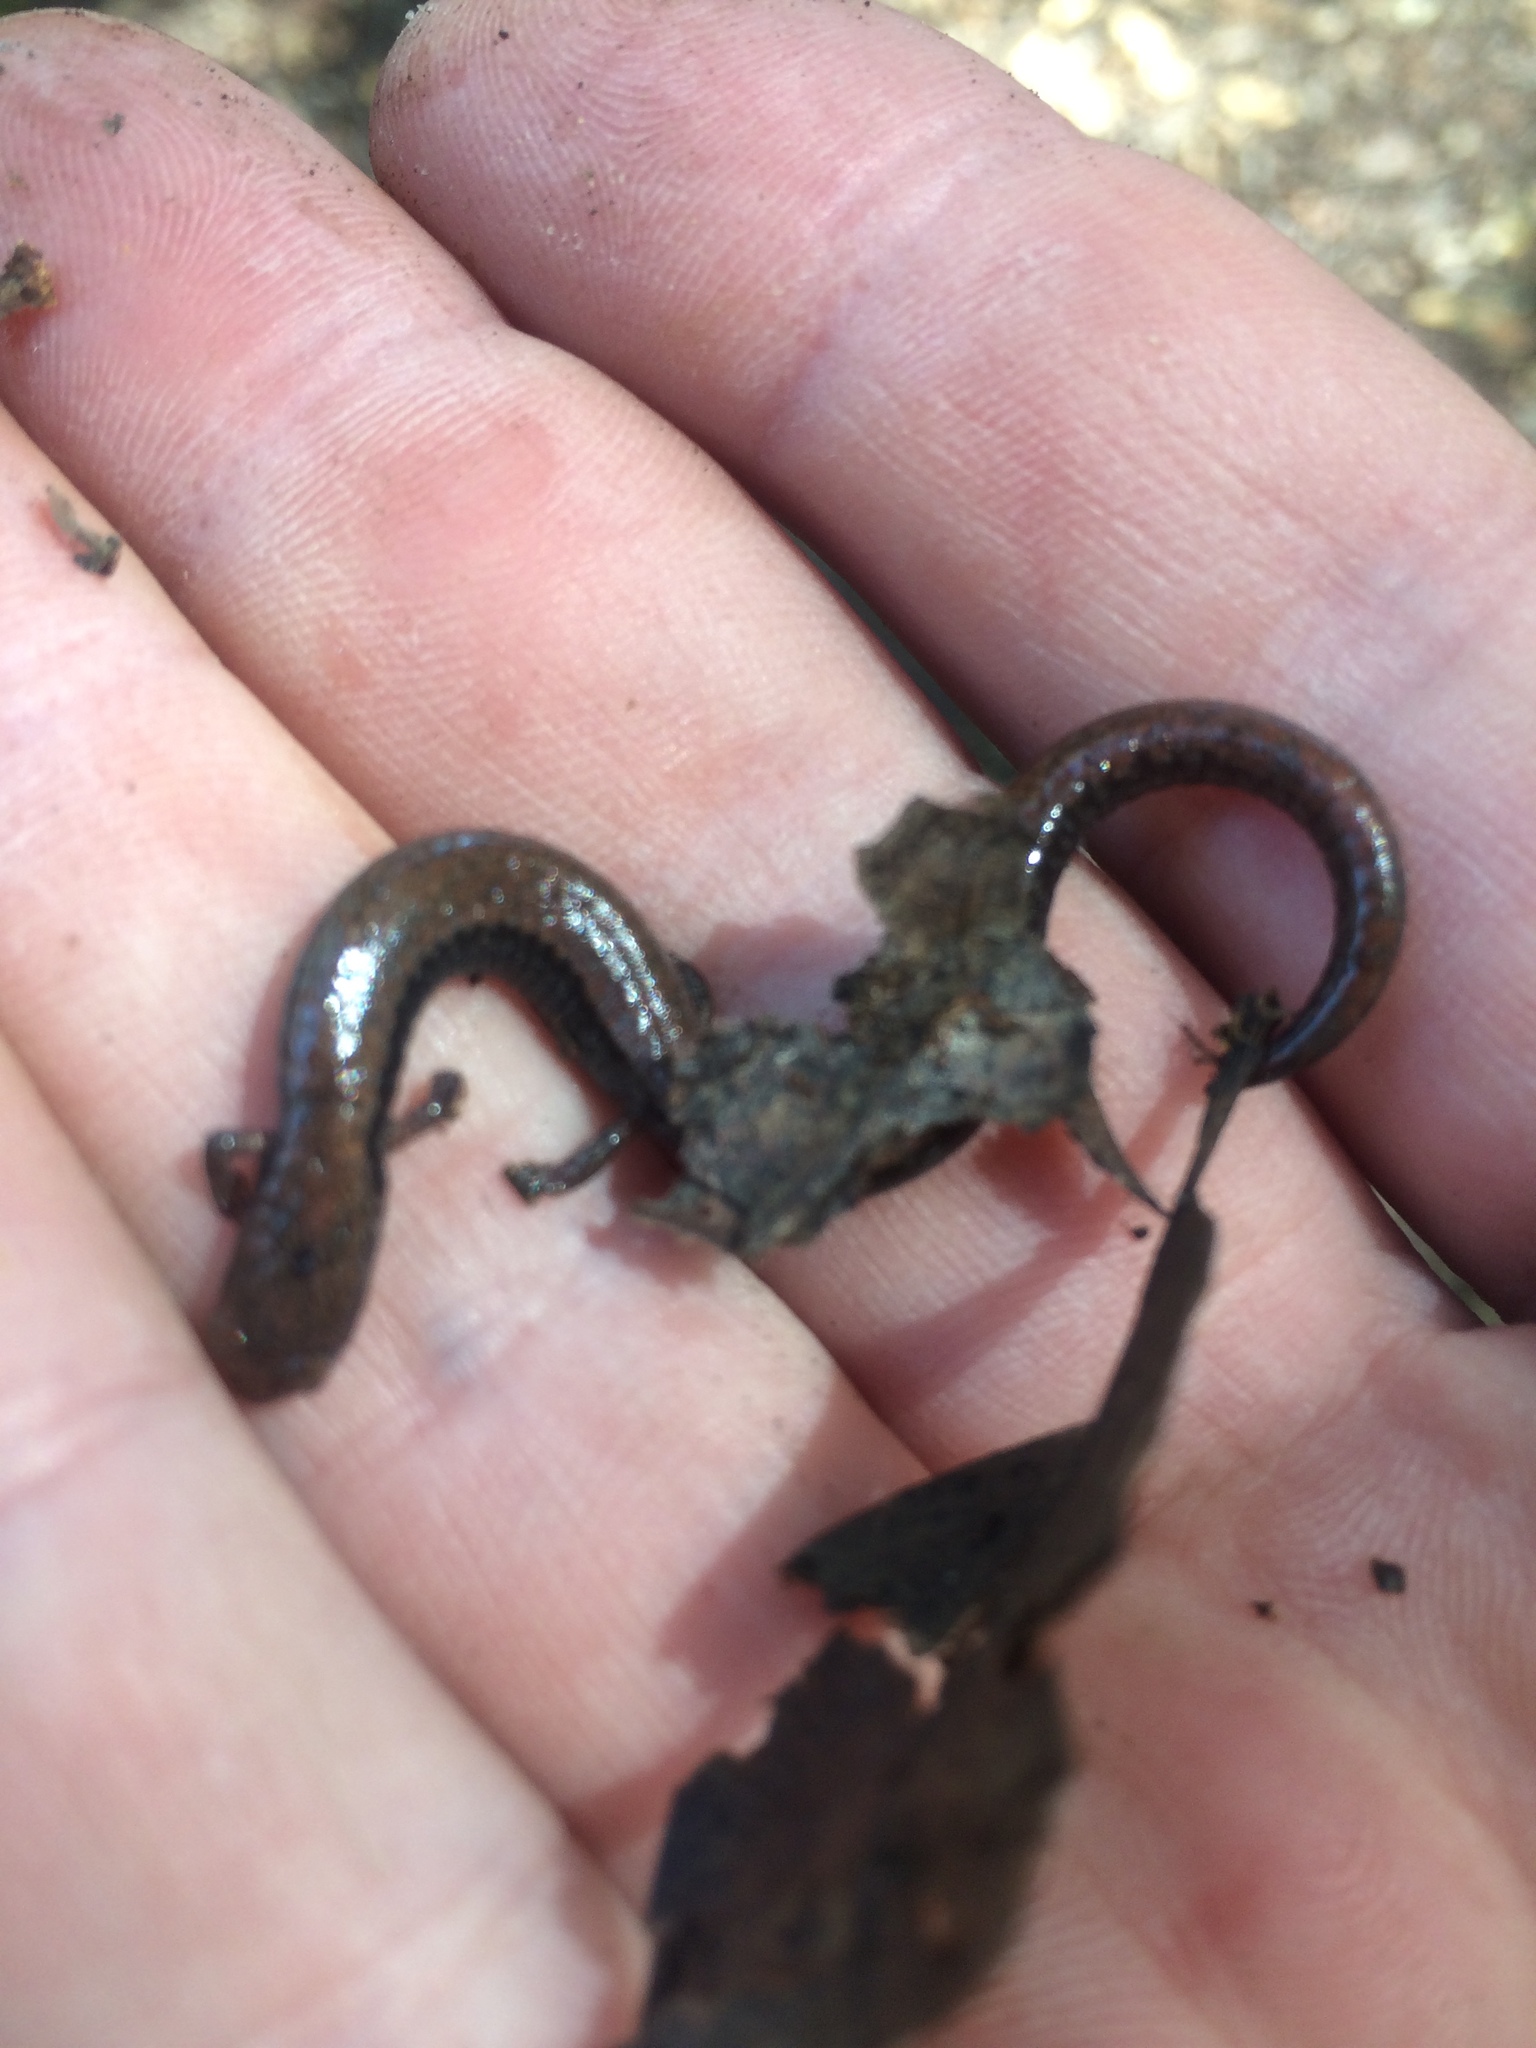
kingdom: Animalia
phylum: Chordata
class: Amphibia
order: Caudata
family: Plethodontidae
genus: Batrachoseps
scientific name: Batrachoseps attenuatus
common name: California slender salamander
